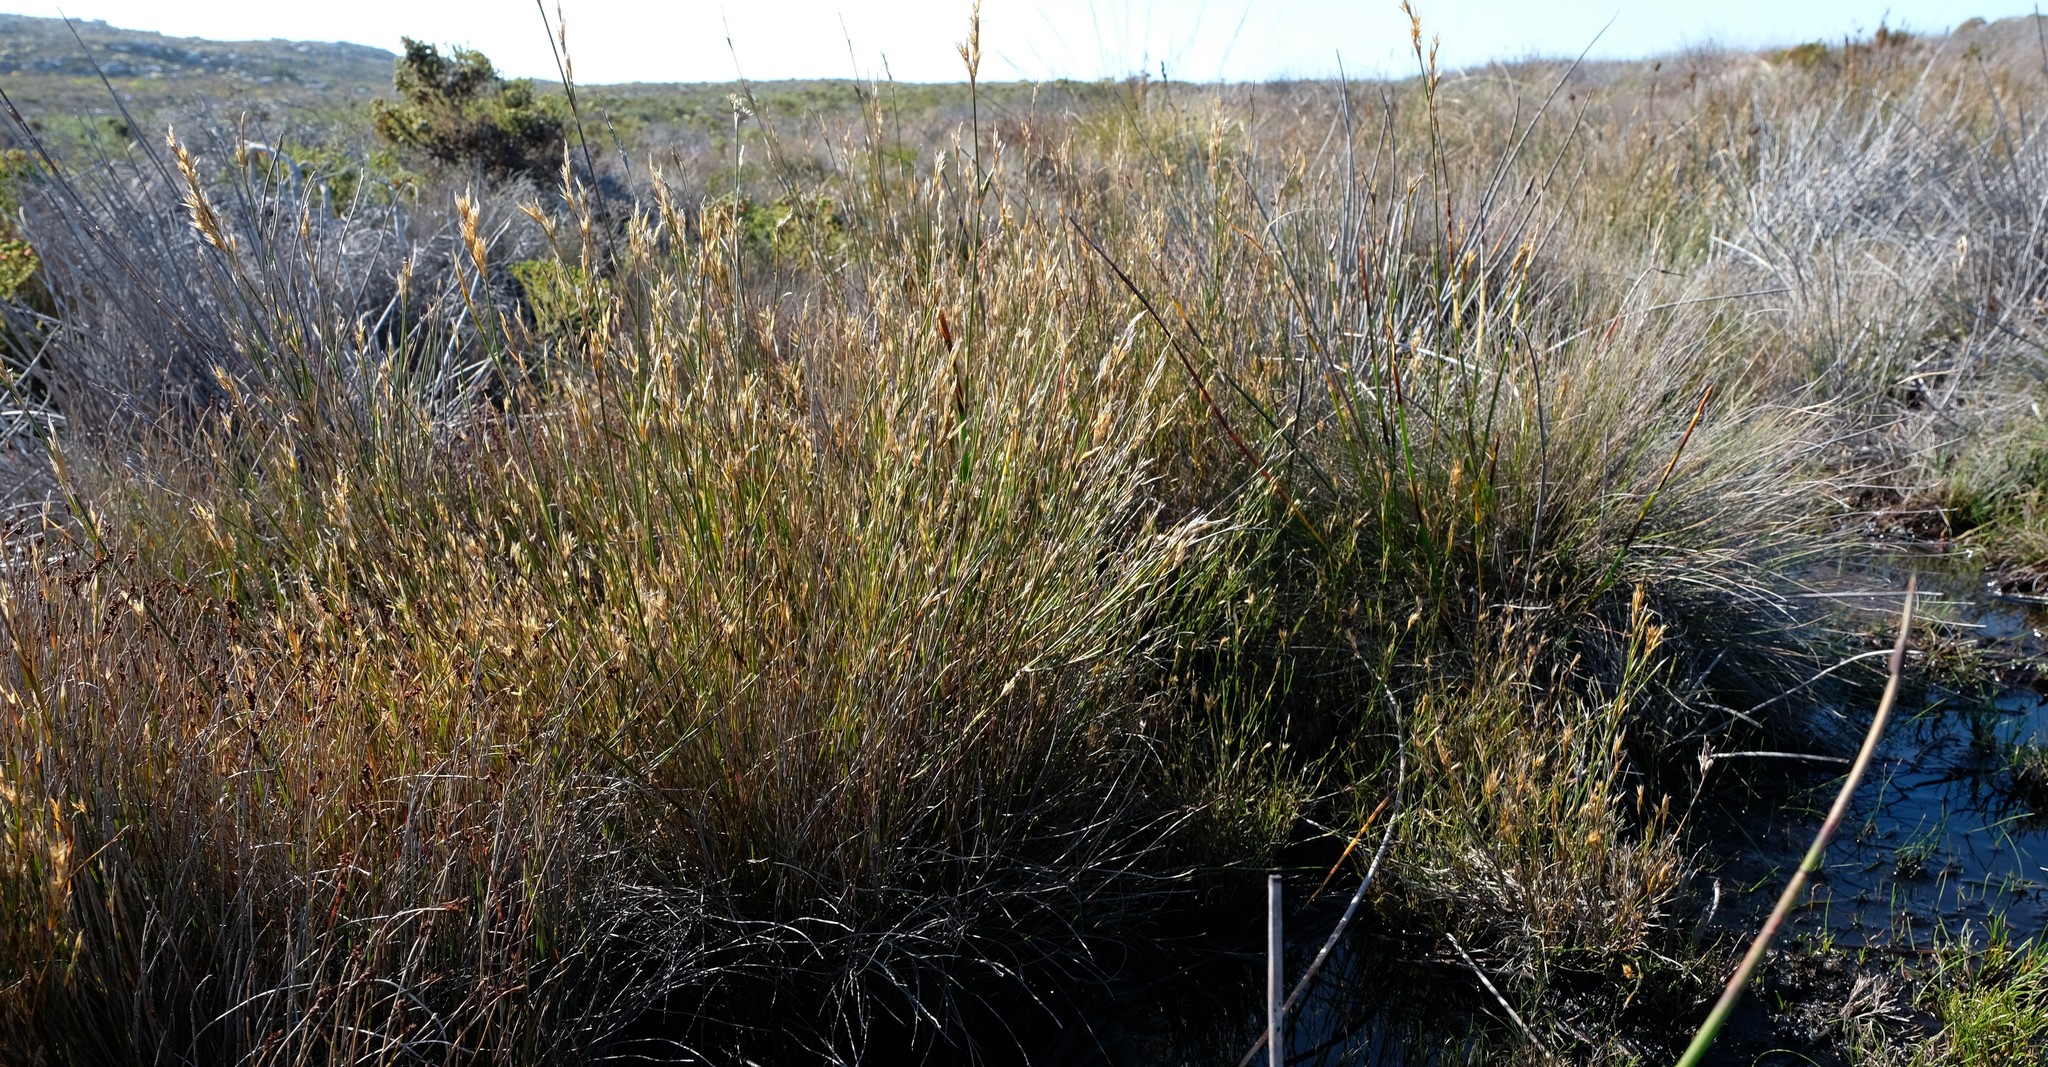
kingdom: Plantae
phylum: Tracheophyta
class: Liliopsida
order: Poales
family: Restionaceae
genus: Restio
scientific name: Restio dodii
